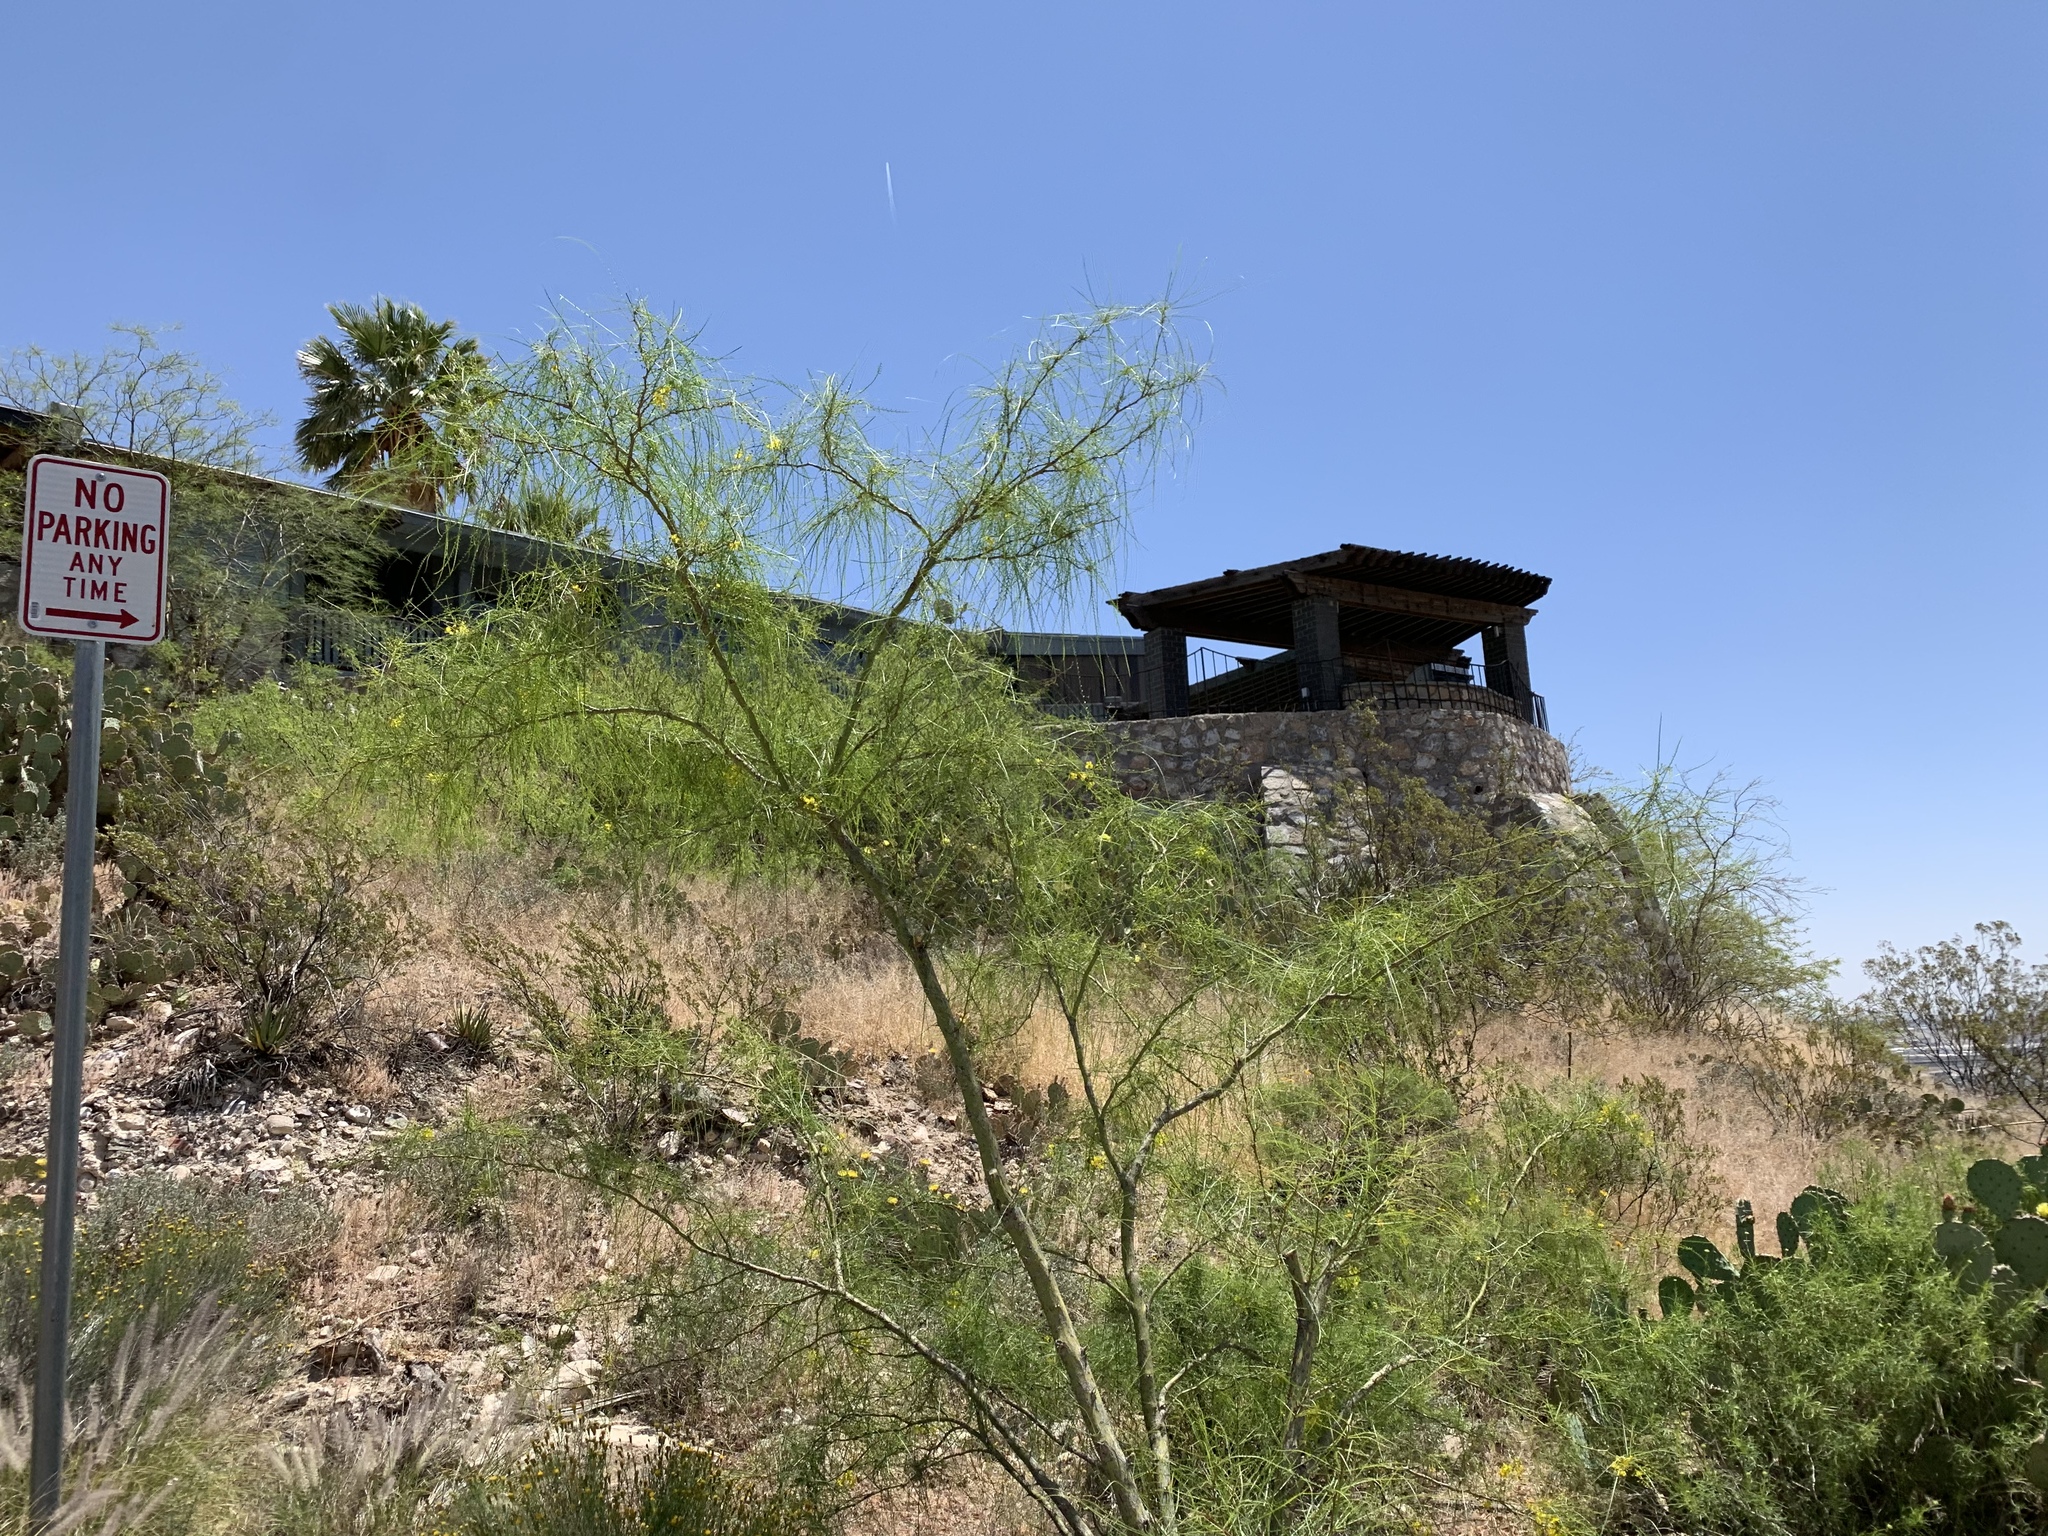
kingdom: Plantae
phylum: Tracheophyta
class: Magnoliopsida
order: Fabales
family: Fabaceae
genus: Parkinsonia
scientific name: Parkinsonia aculeata
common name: Jerusalem thorn
